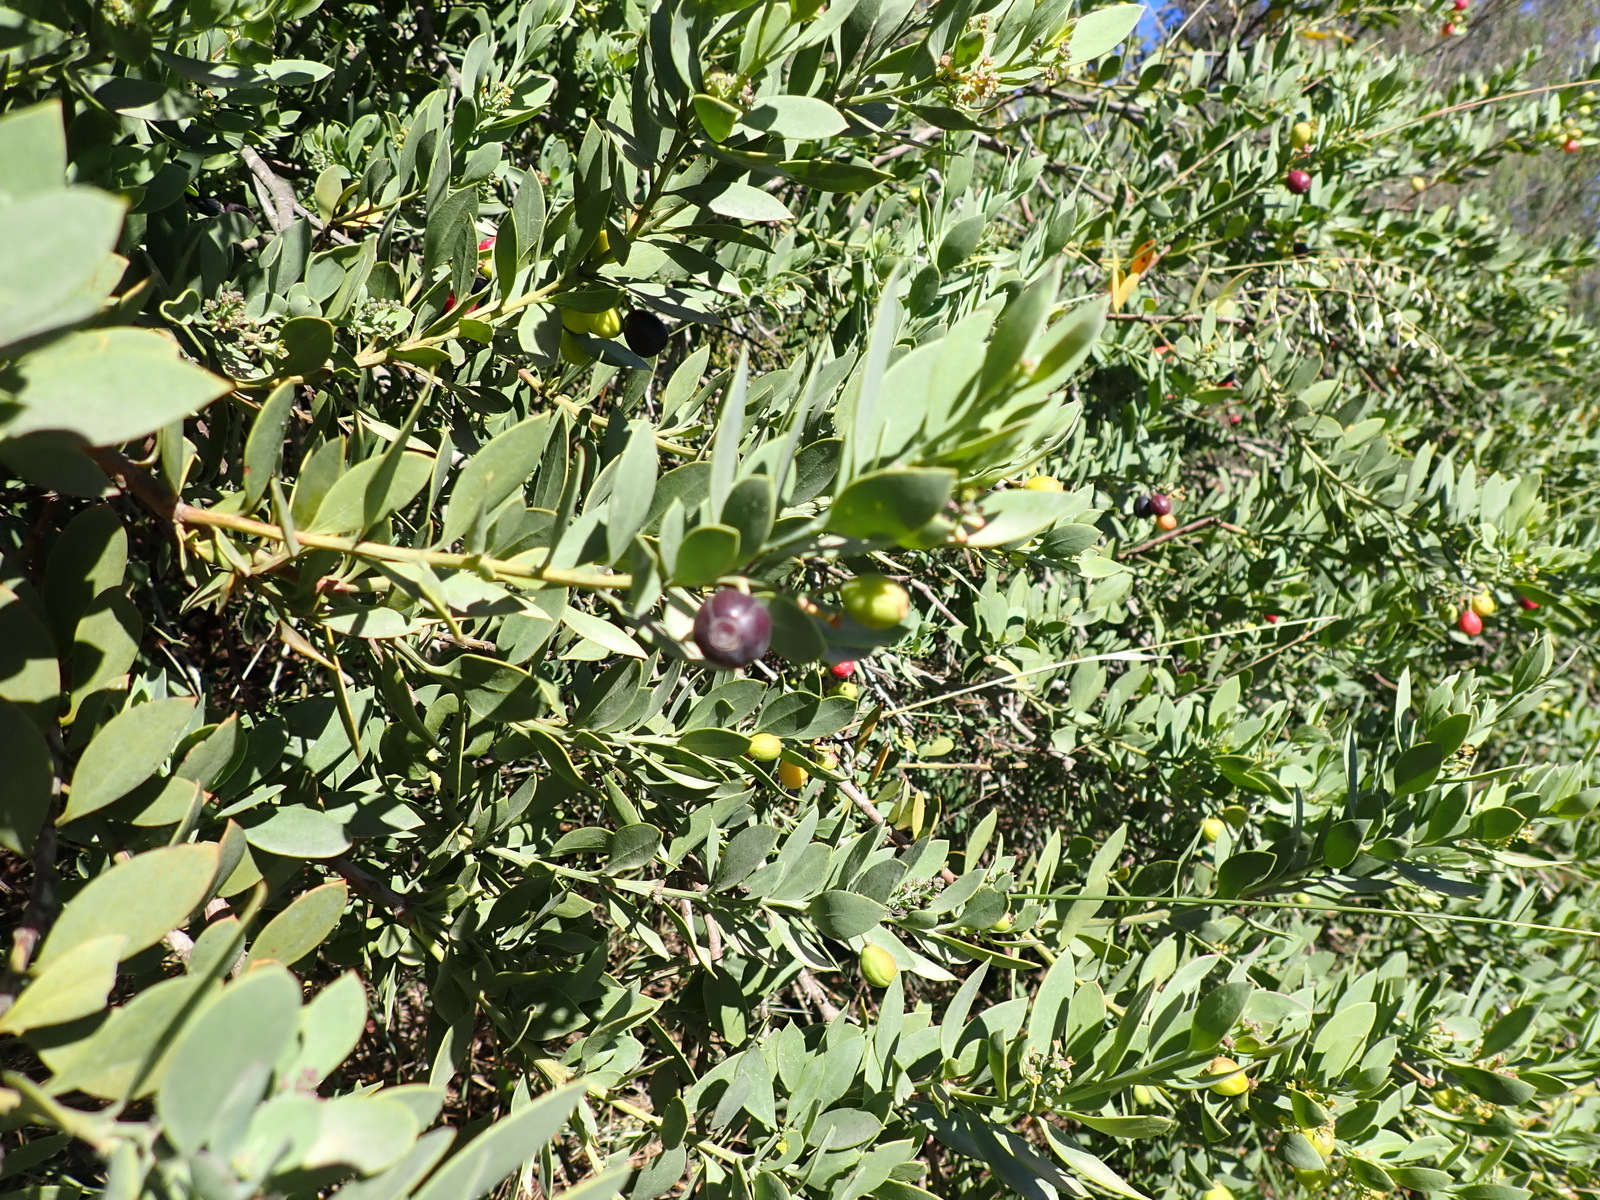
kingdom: Plantae
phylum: Tracheophyta
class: Magnoliopsida
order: Santalales
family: Santalaceae
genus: Osyris
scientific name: Osyris compressa
